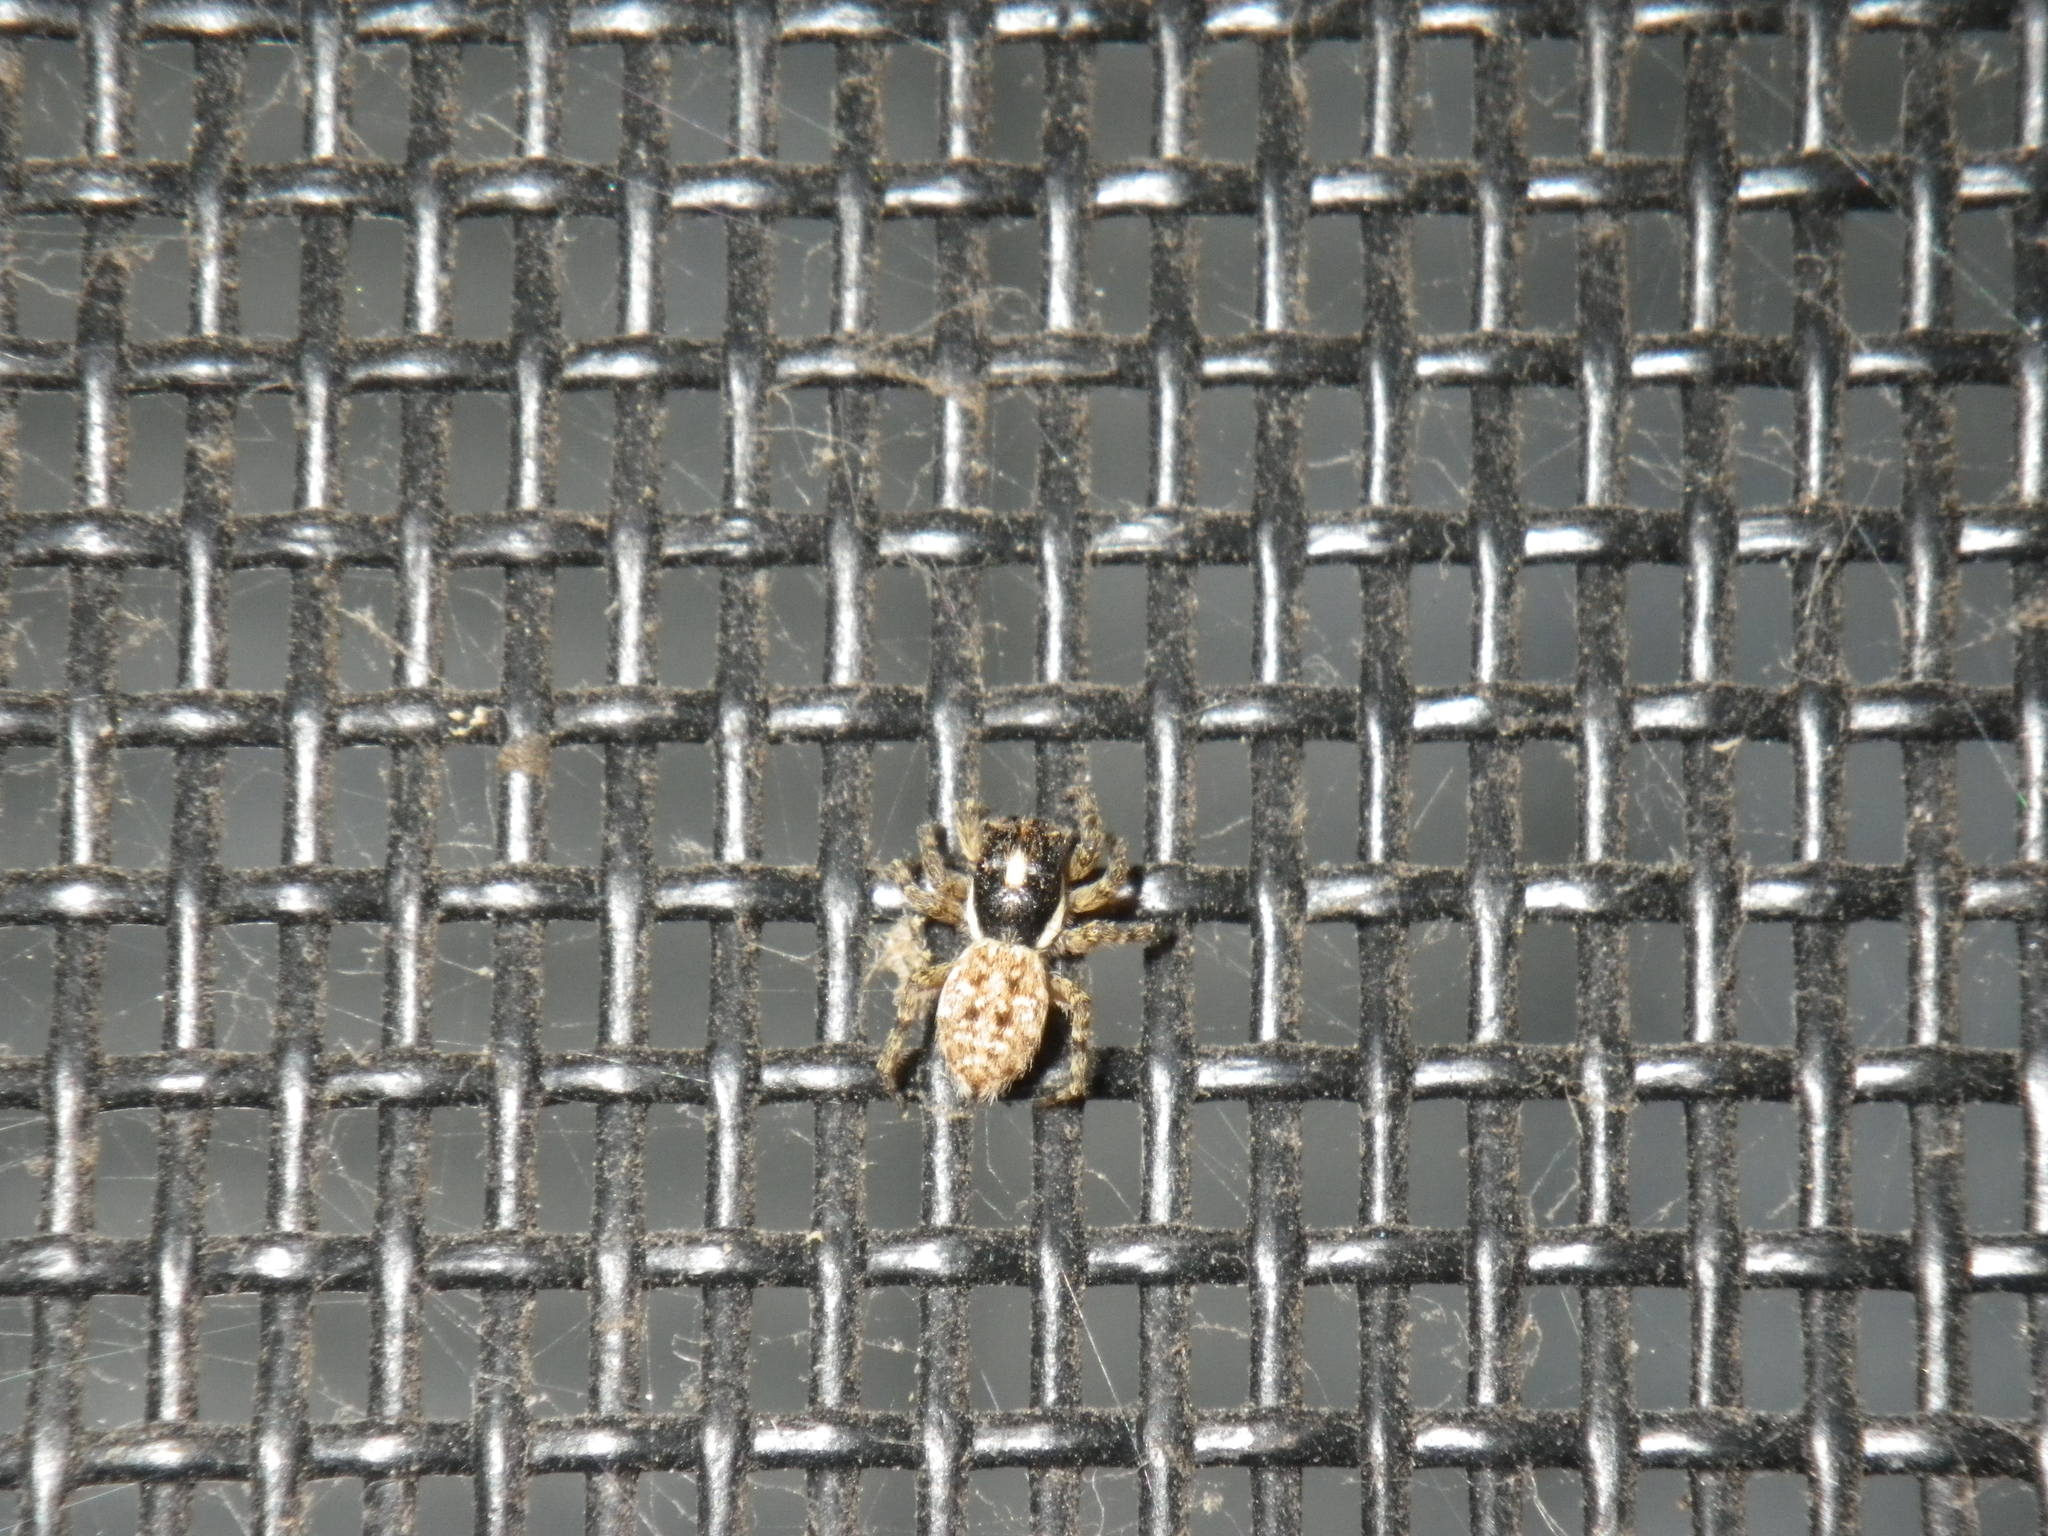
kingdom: Animalia
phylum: Arthropoda
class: Arachnida
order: Araneae
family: Salticidae
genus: Menemerus
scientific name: Menemerus semilimbatus
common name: Jumping spider
